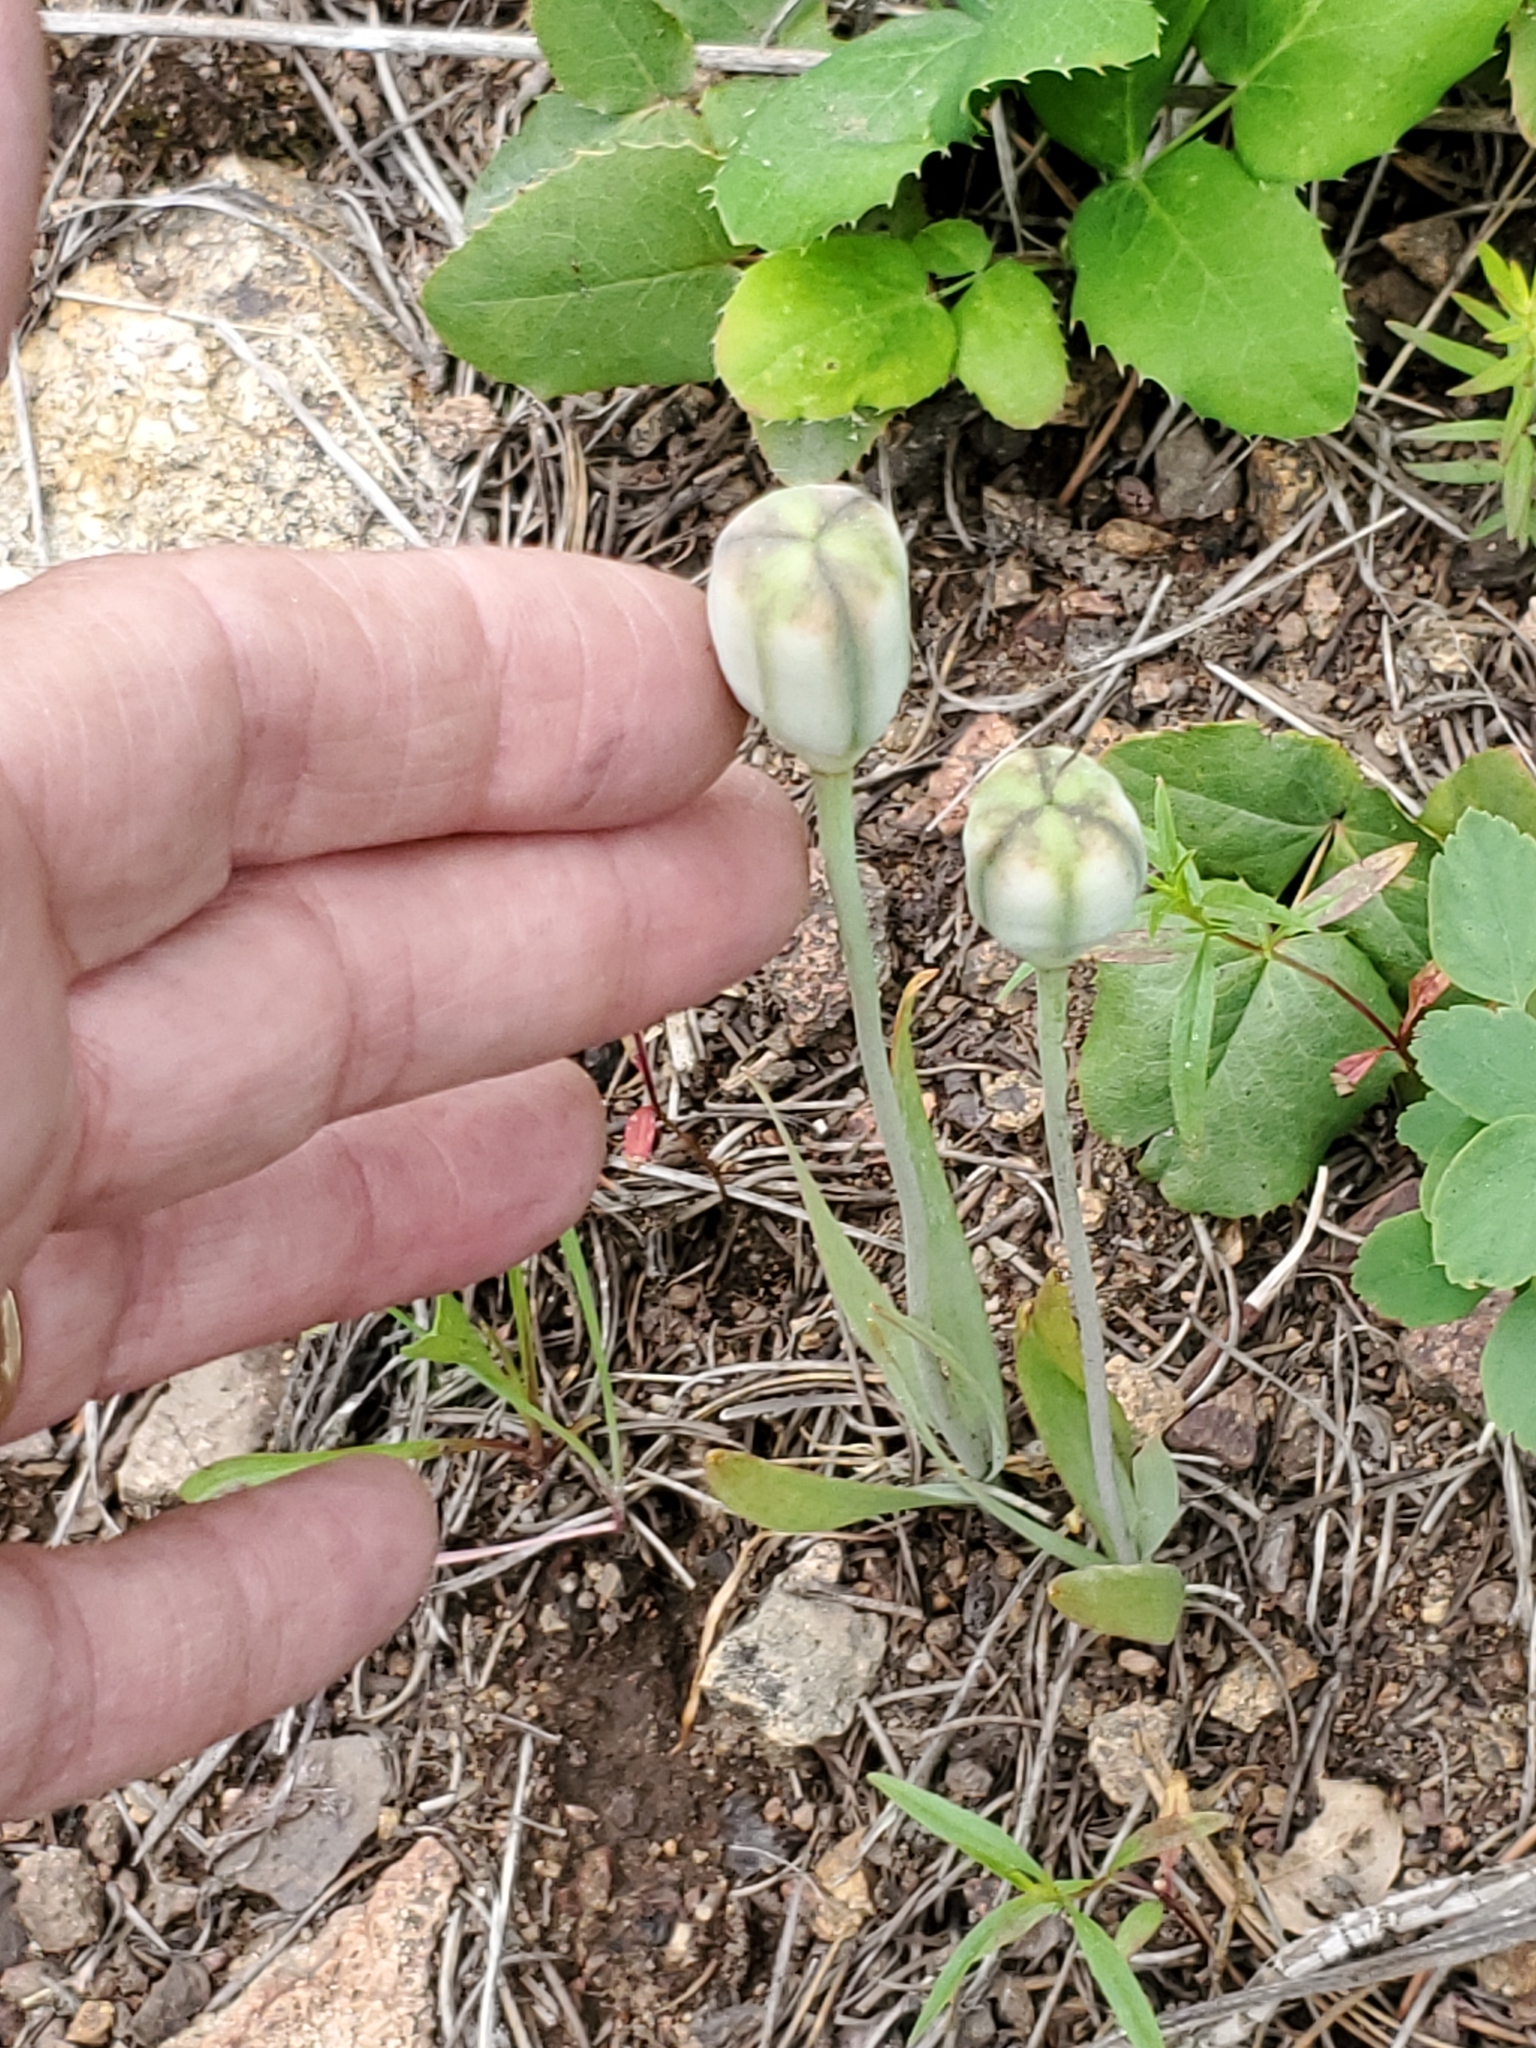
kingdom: Plantae
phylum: Tracheophyta
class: Liliopsida
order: Liliales
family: Liliaceae
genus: Fritillaria
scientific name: Fritillaria pudica
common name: Yellow fritillary
